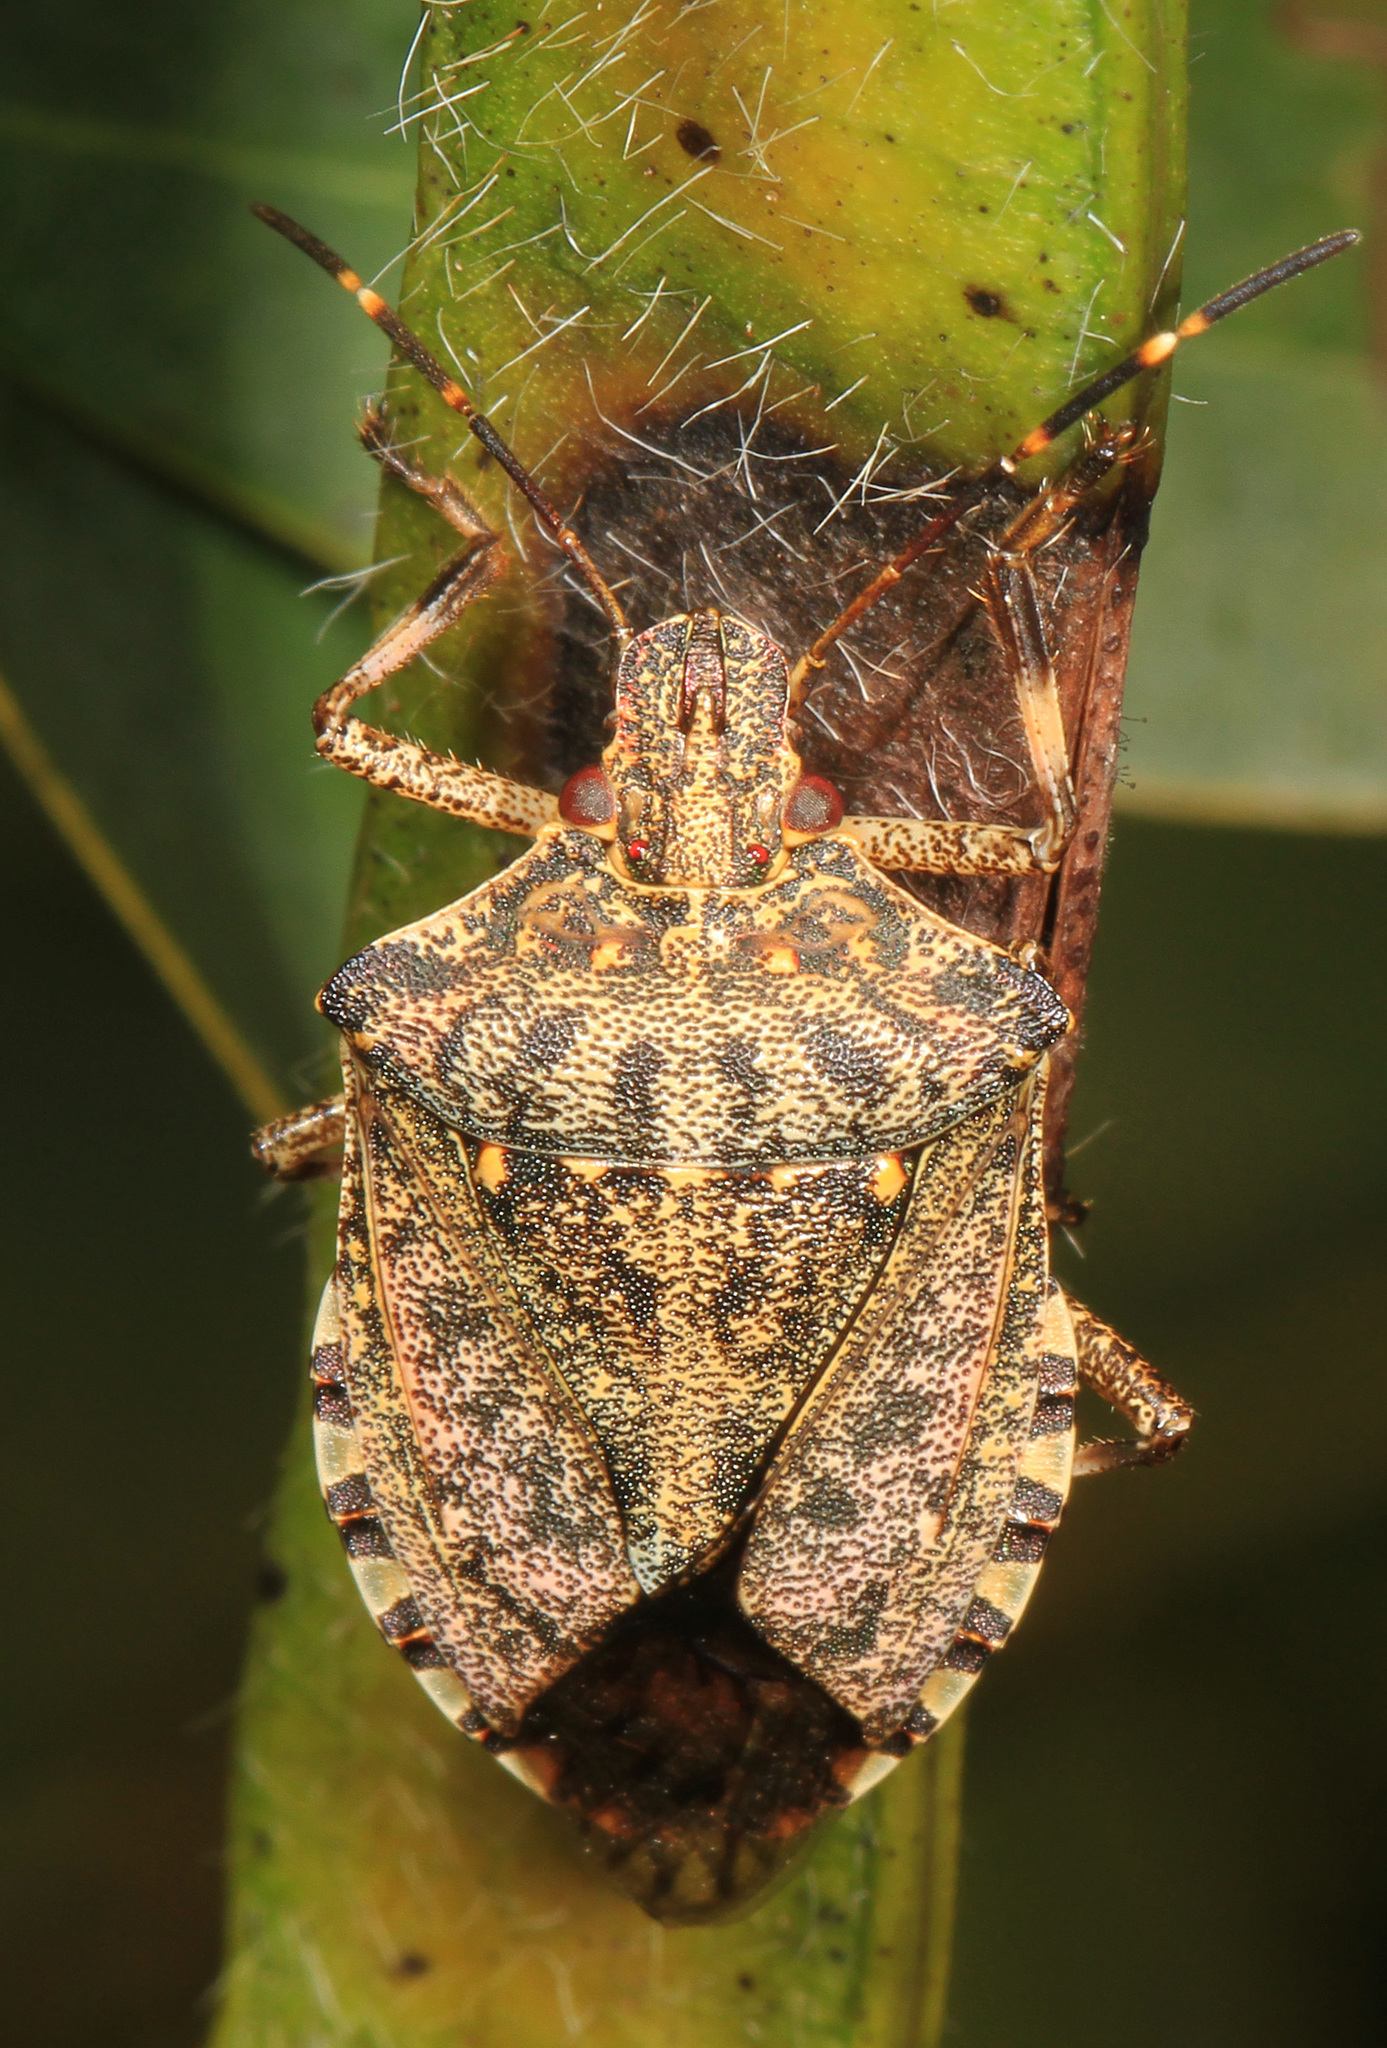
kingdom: Animalia
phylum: Arthropoda
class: Insecta
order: Hemiptera
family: Pentatomidae
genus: Halyomorpha
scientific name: Halyomorpha halys
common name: Brown marmorated stink bug
